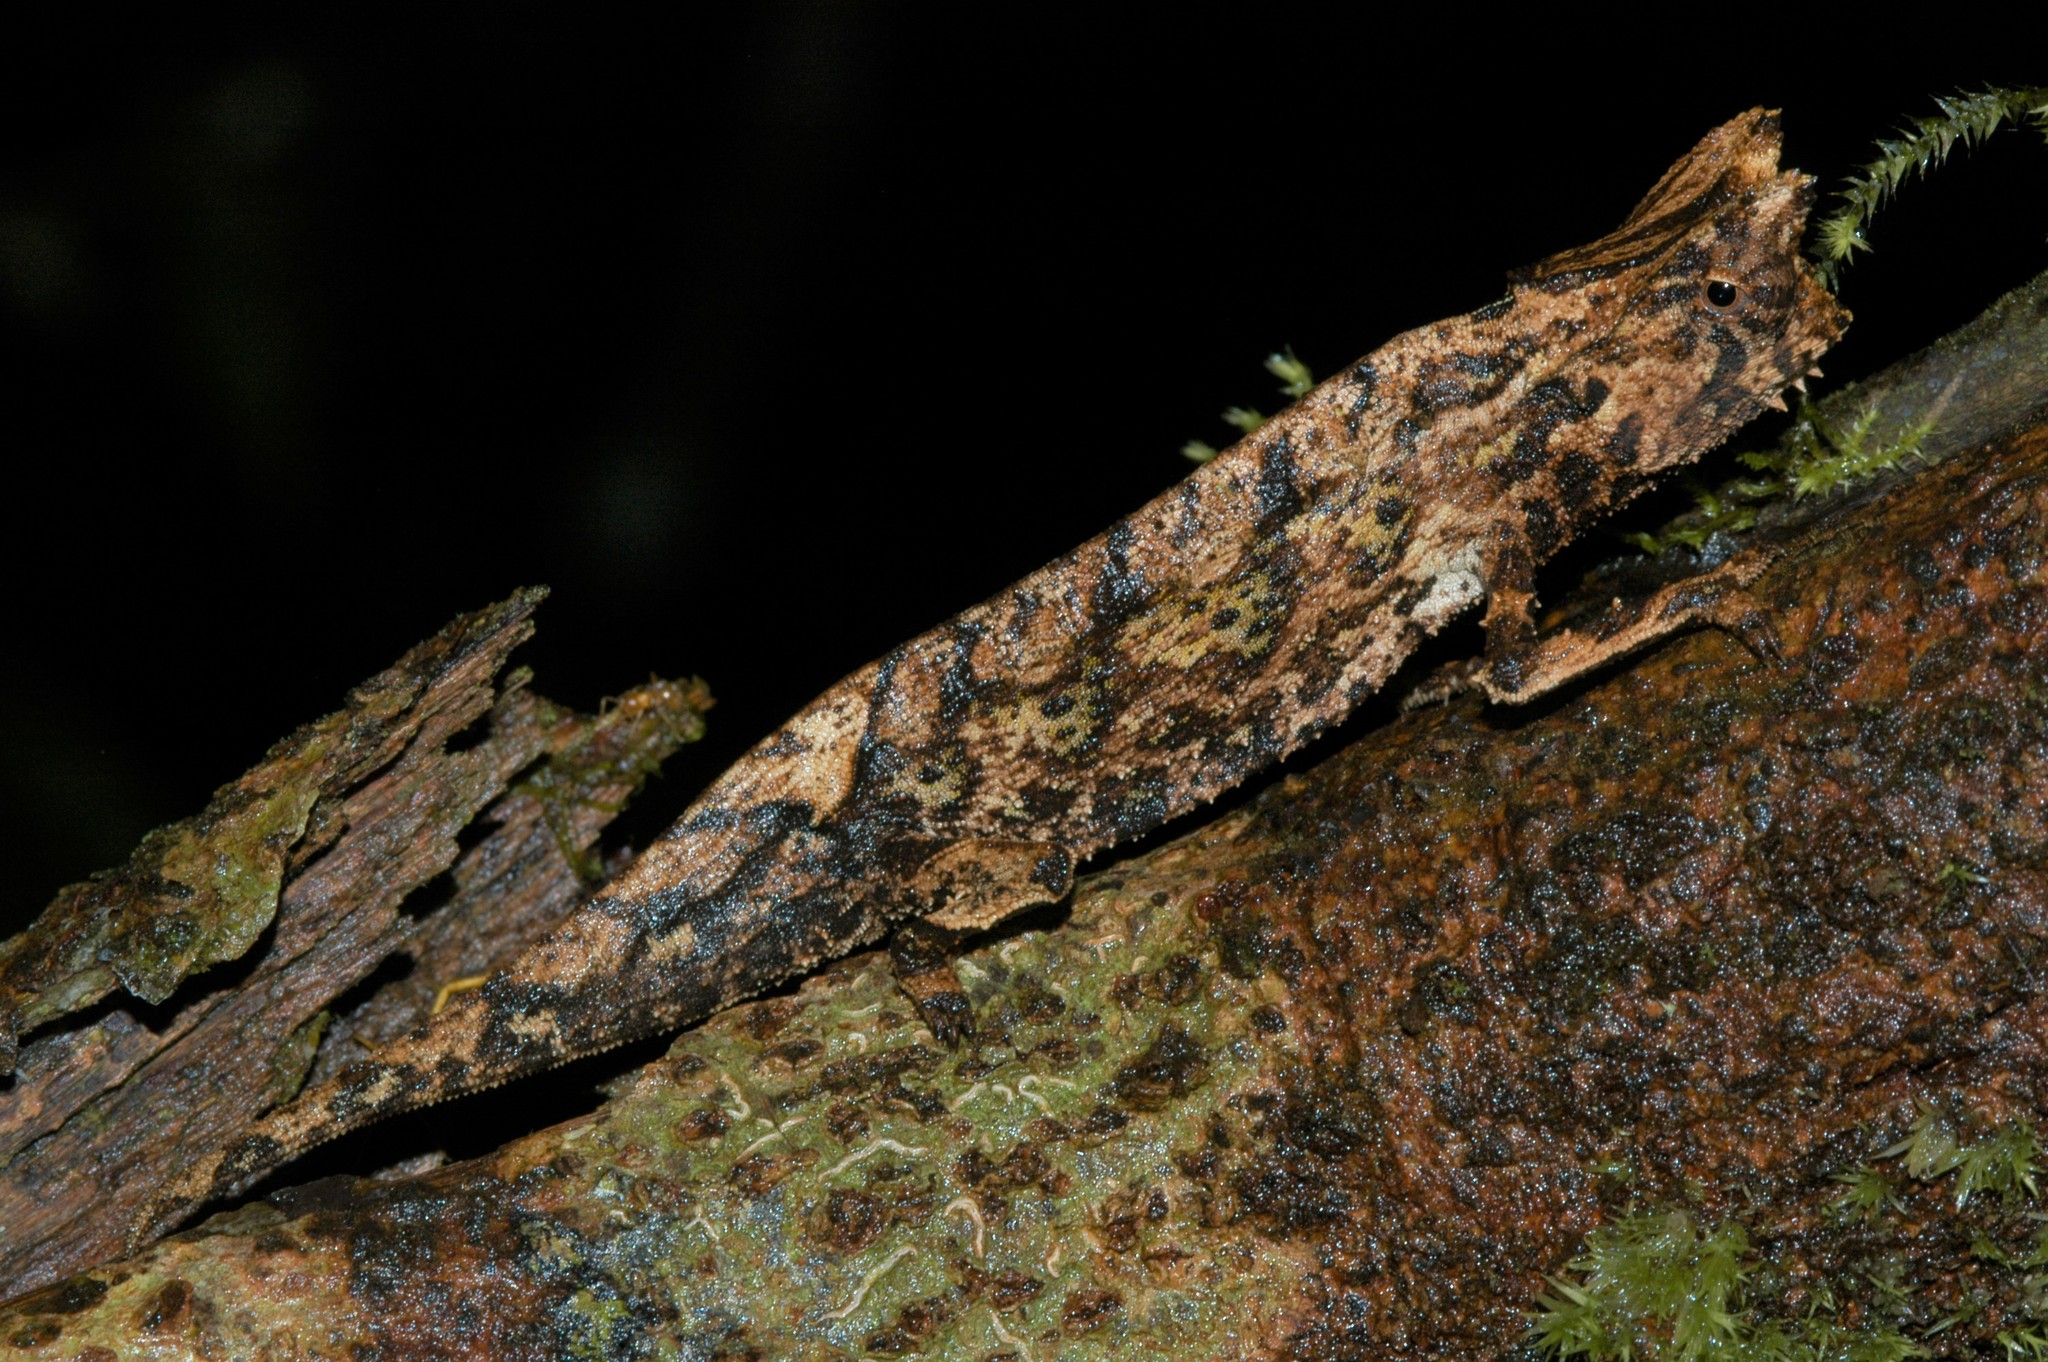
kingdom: Animalia
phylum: Chordata
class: Squamata
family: Chamaeleonidae
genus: Brookesia
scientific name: Brookesia superciliaris
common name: Brown leaf chameleon
